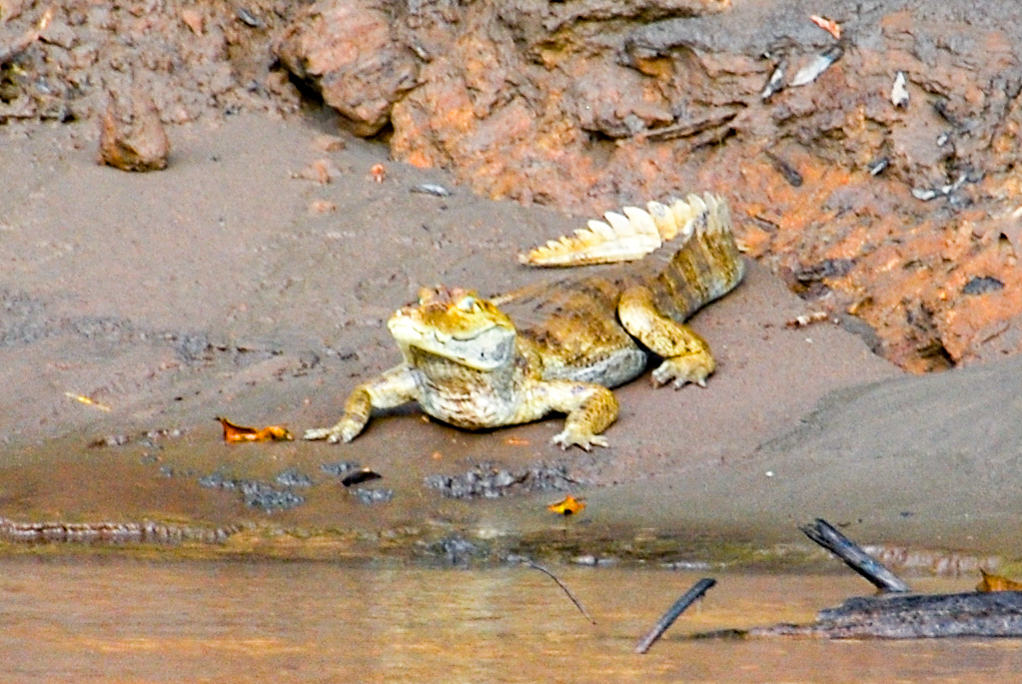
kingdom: Animalia
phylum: Chordata
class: Crocodylia
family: Alligatoridae
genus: Caiman
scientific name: Caiman crocodilus
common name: Common caiman
